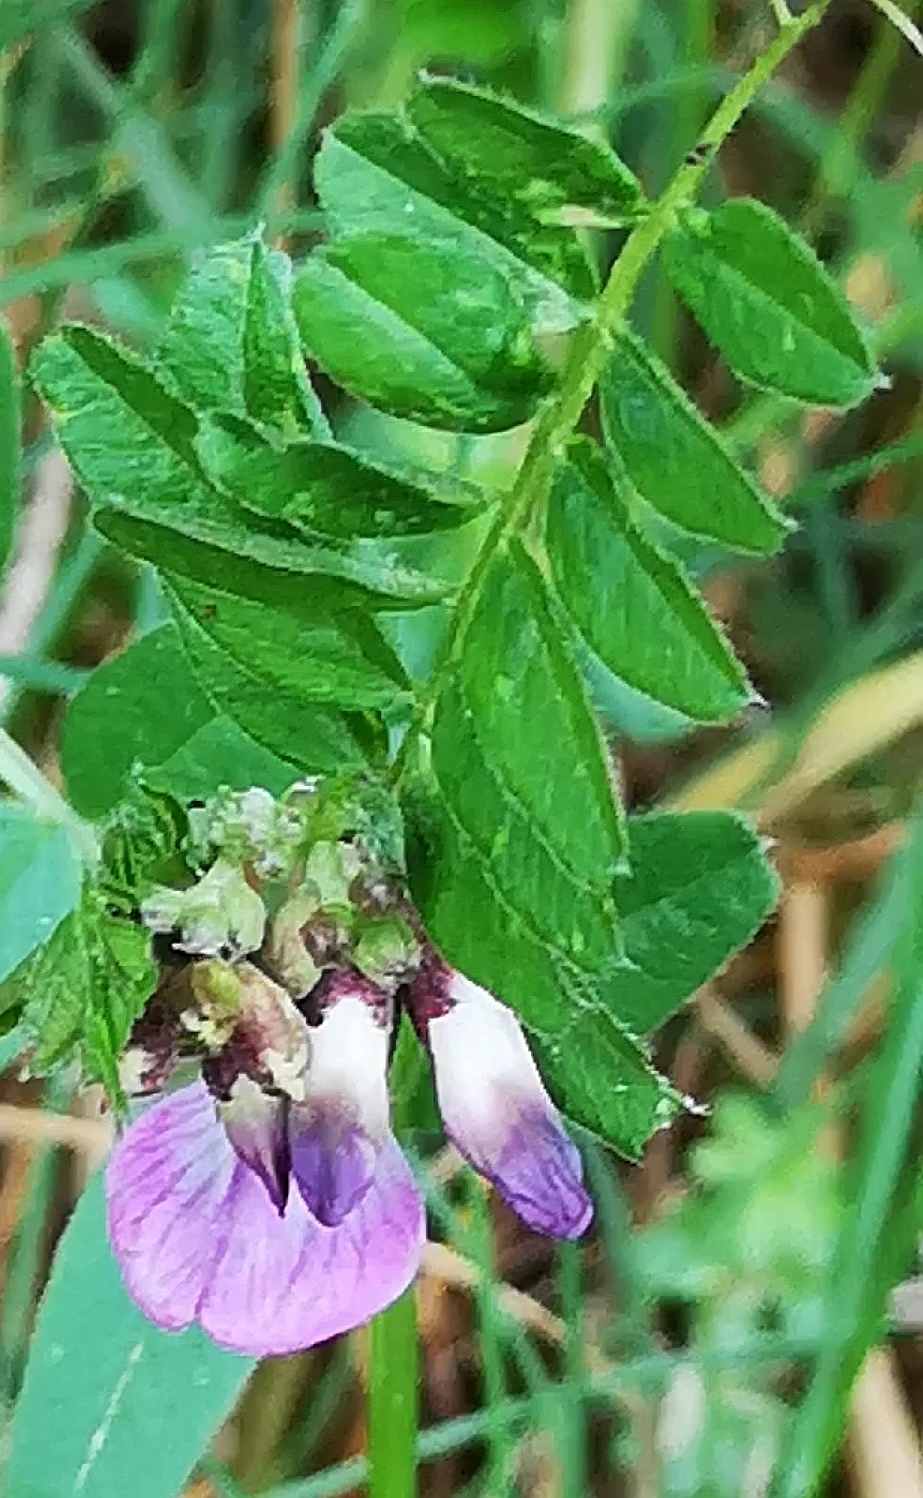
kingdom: Plantae
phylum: Tracheophyta
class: Magnoliopsida
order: Fabales
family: Fabaceae
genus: Vicia
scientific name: Vicia sepium
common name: Bush vetch
